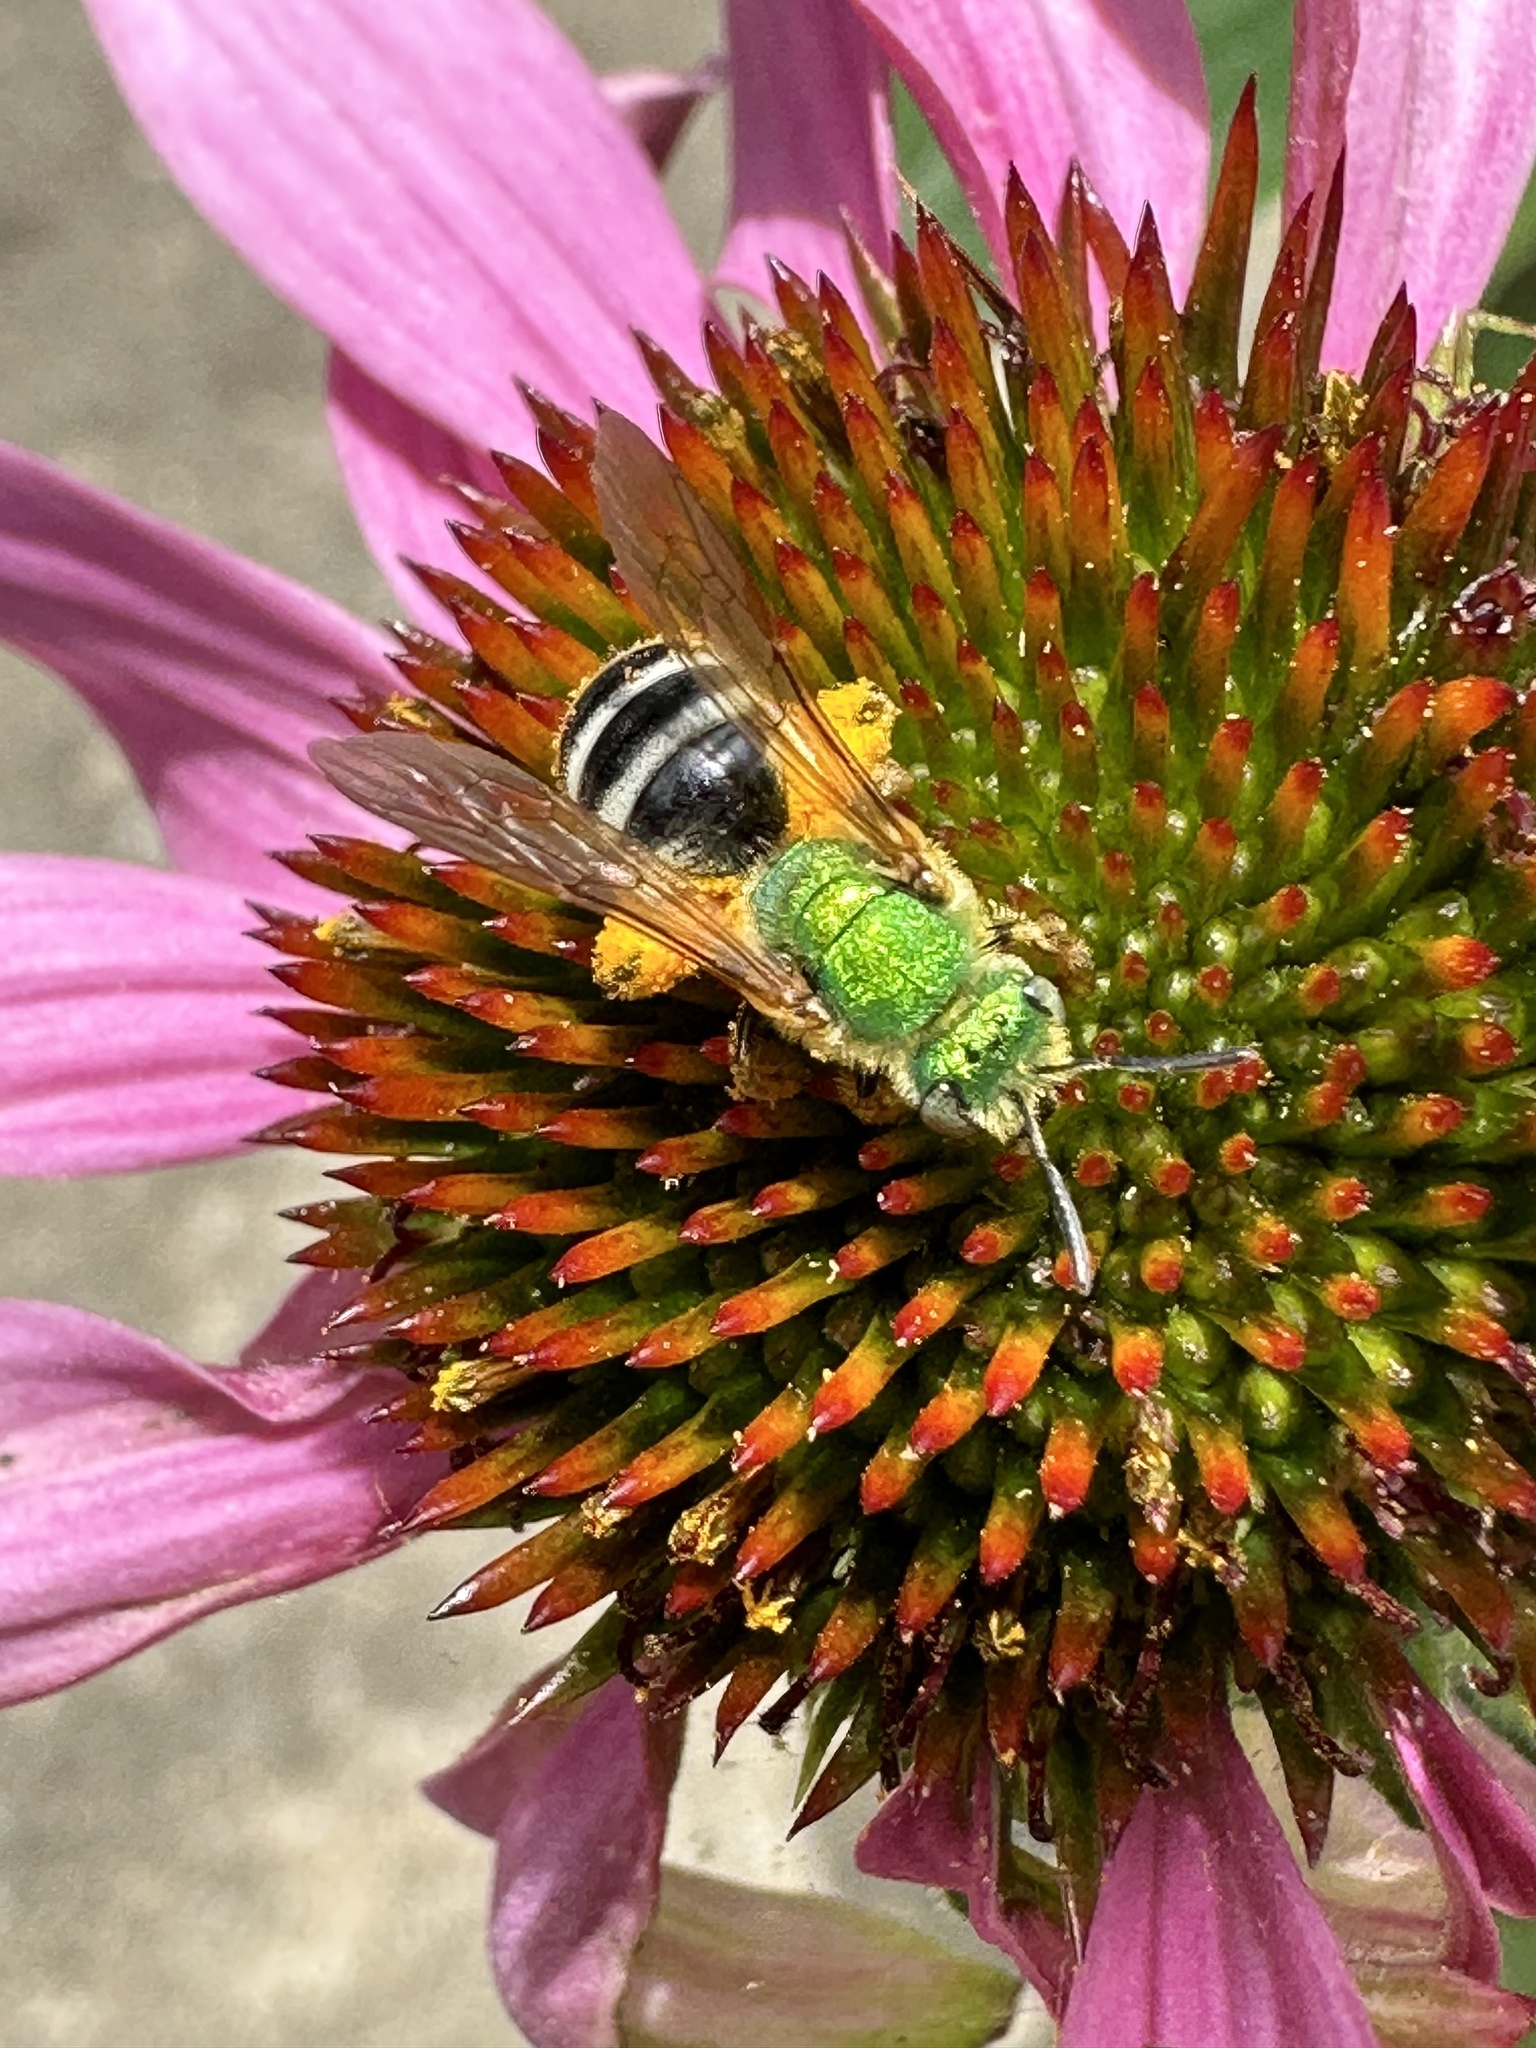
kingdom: Animalia
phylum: Arthropoda
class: Insecta
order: Hymenoptera
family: Halictidae
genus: Agapostemon
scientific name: Agapostemon virescens
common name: Bicolored striped sweat bee
